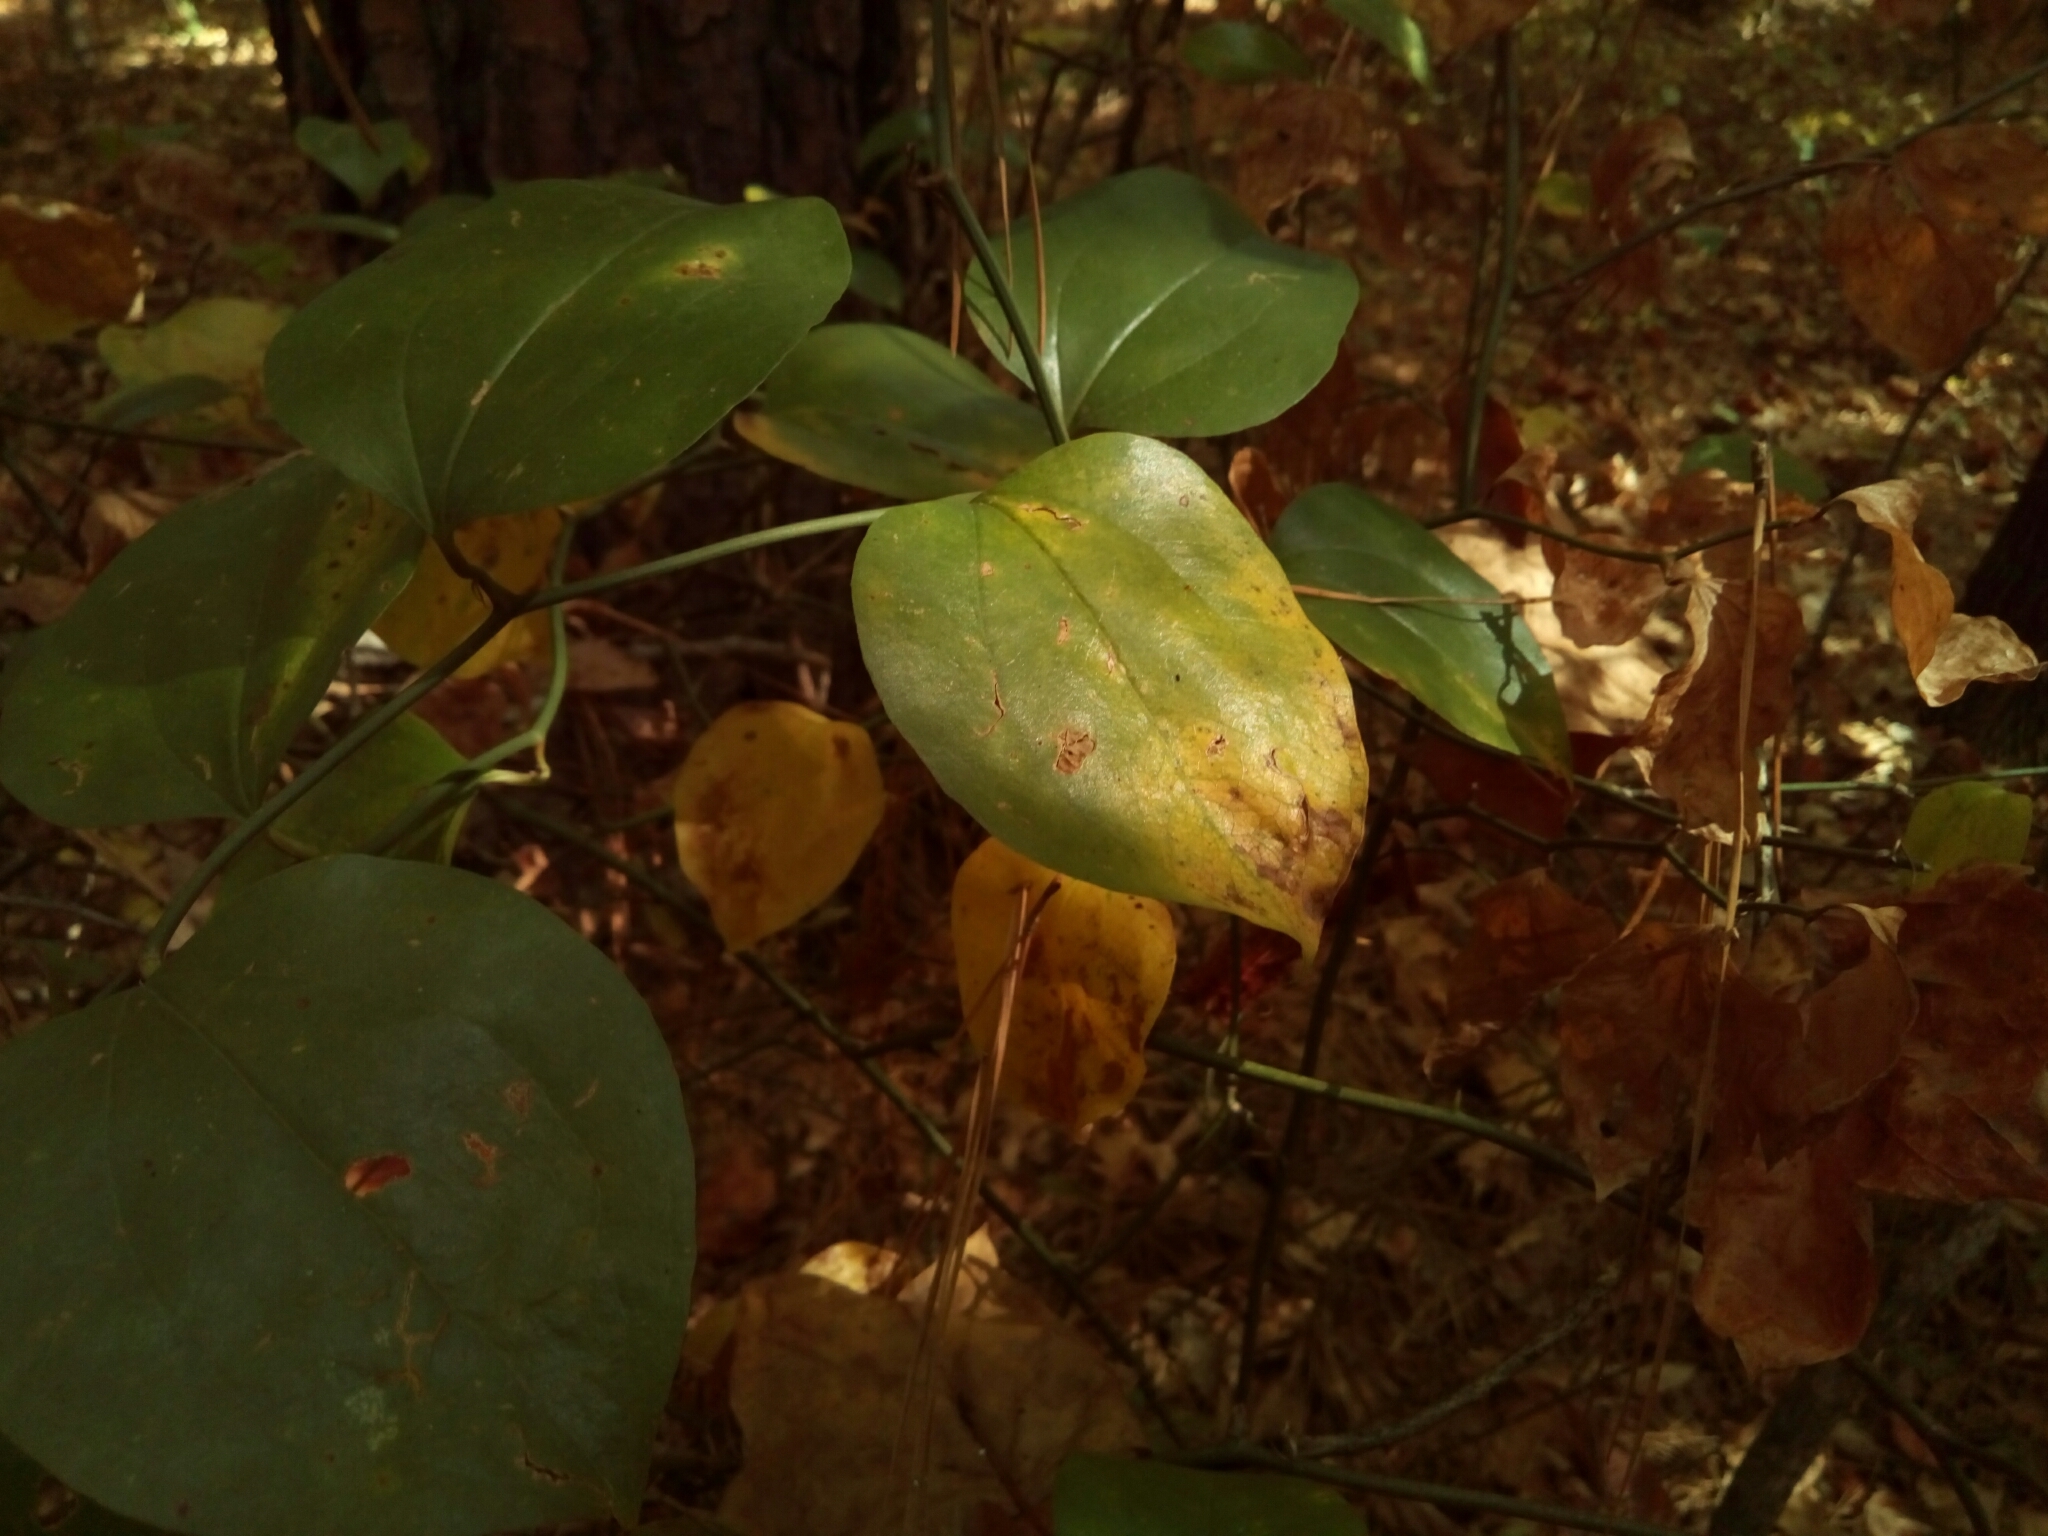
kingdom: Plantae
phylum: Tracheophyta
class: Liliopsida
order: Liliales
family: Smilacaceae
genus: Smilax
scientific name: Smilax rotundifolia
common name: Bullbriar
